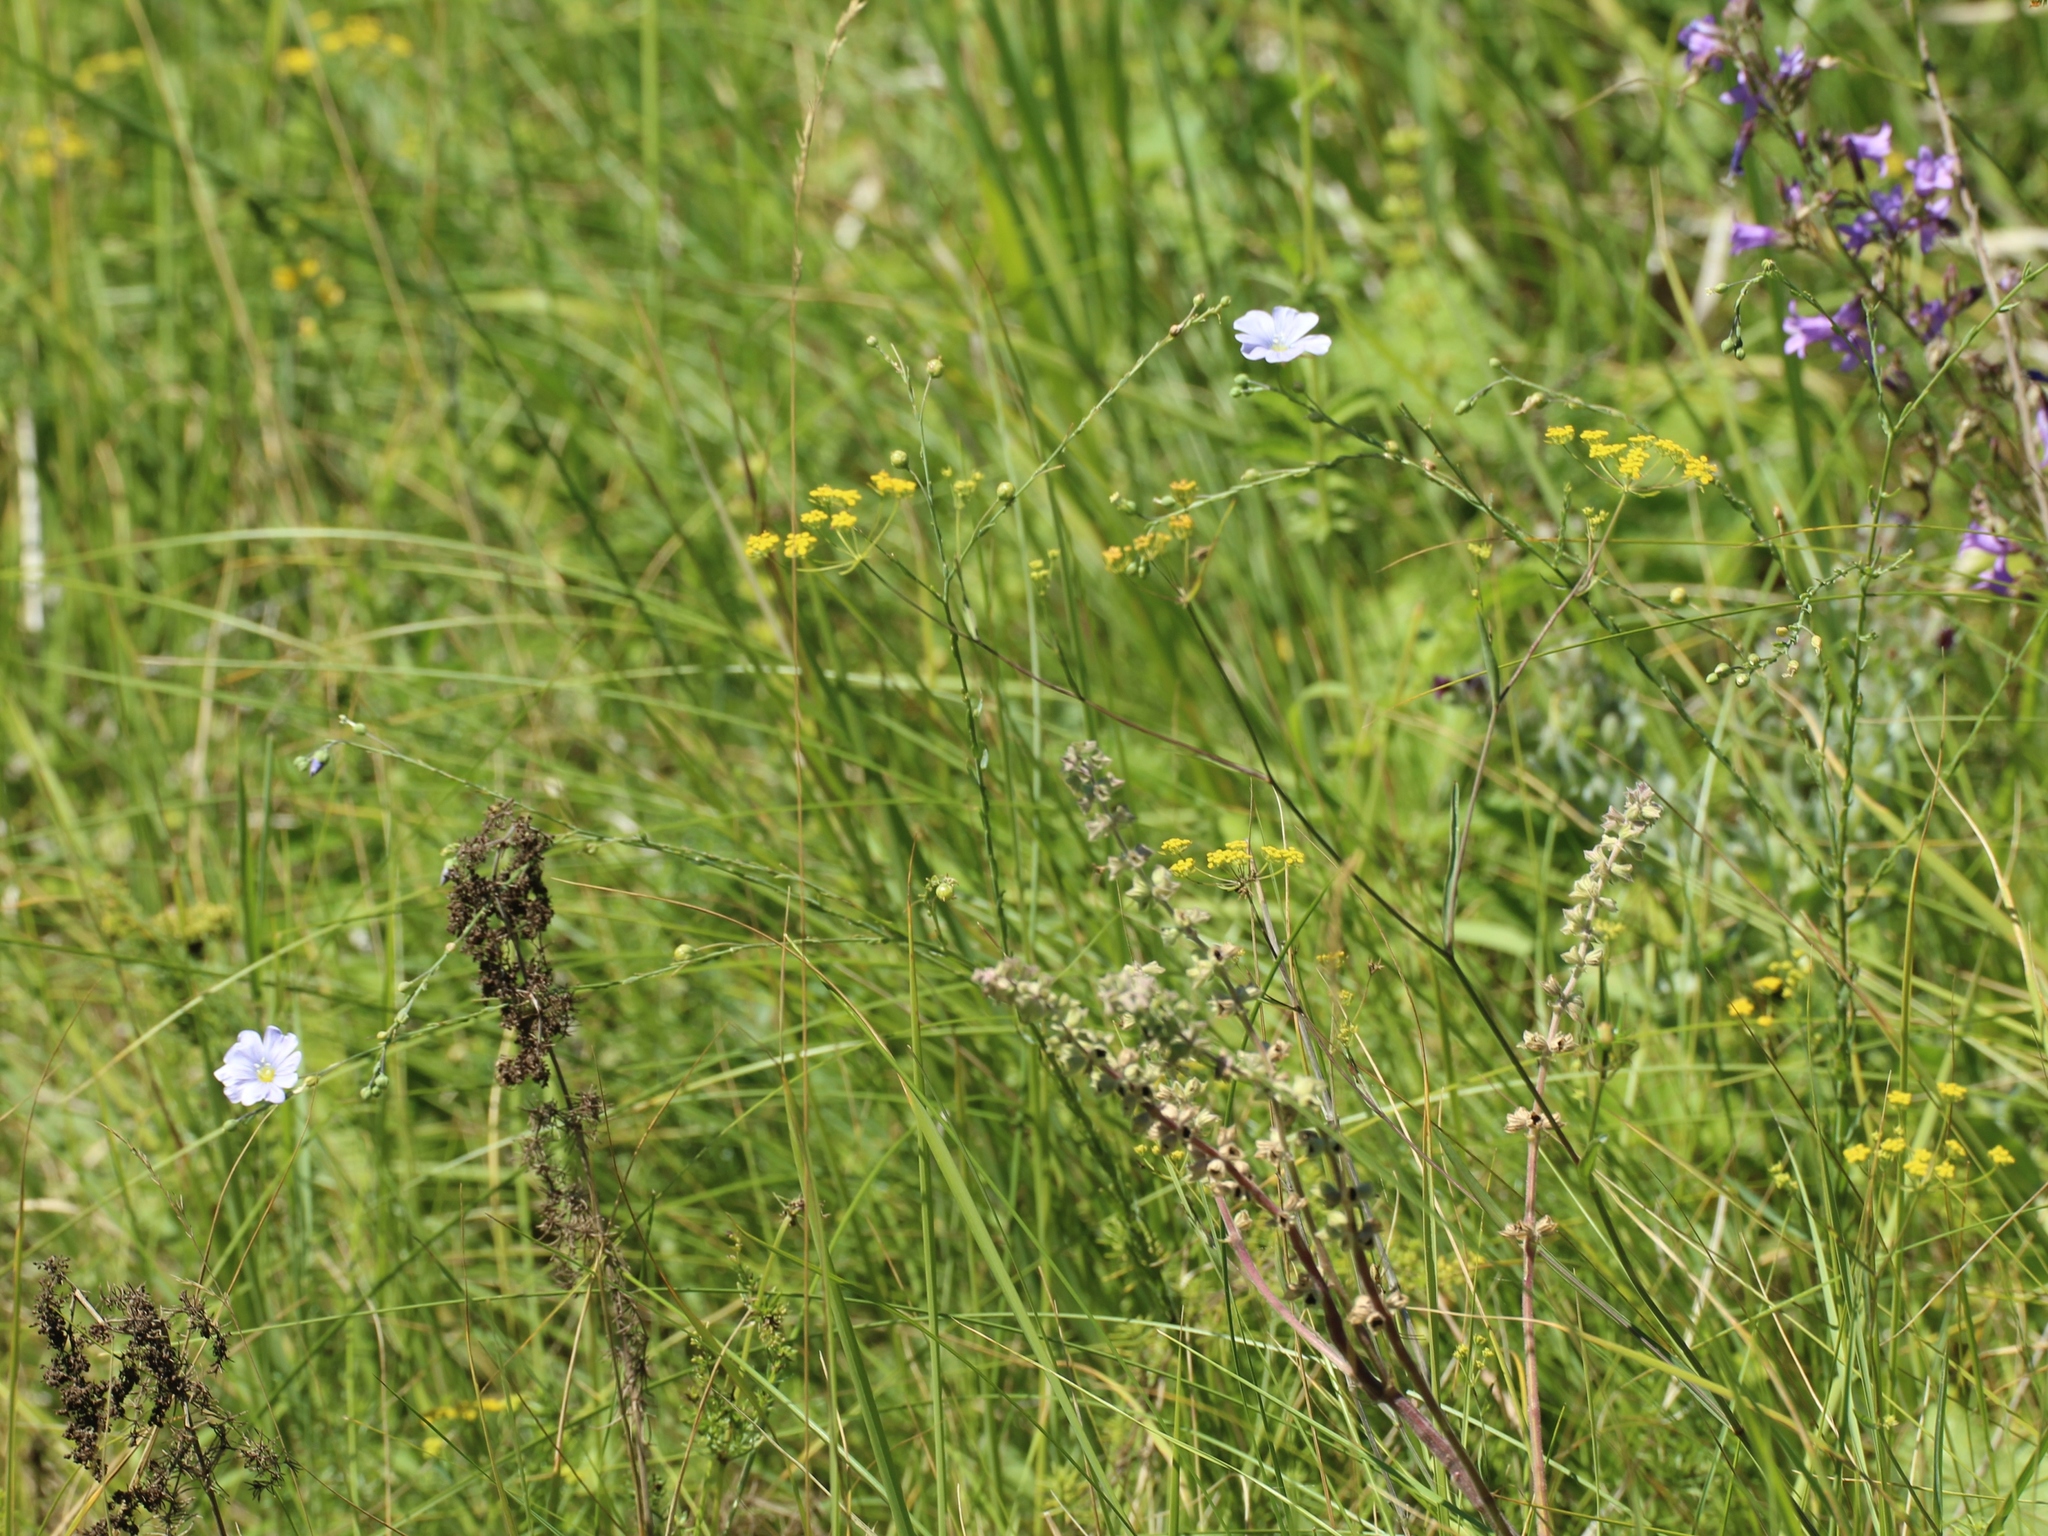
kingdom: Plantae
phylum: Tracheophyta
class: Magnoliopsida
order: Malpighiales
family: Linaceae
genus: Linum
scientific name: Linum perenne
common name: Blue flax
